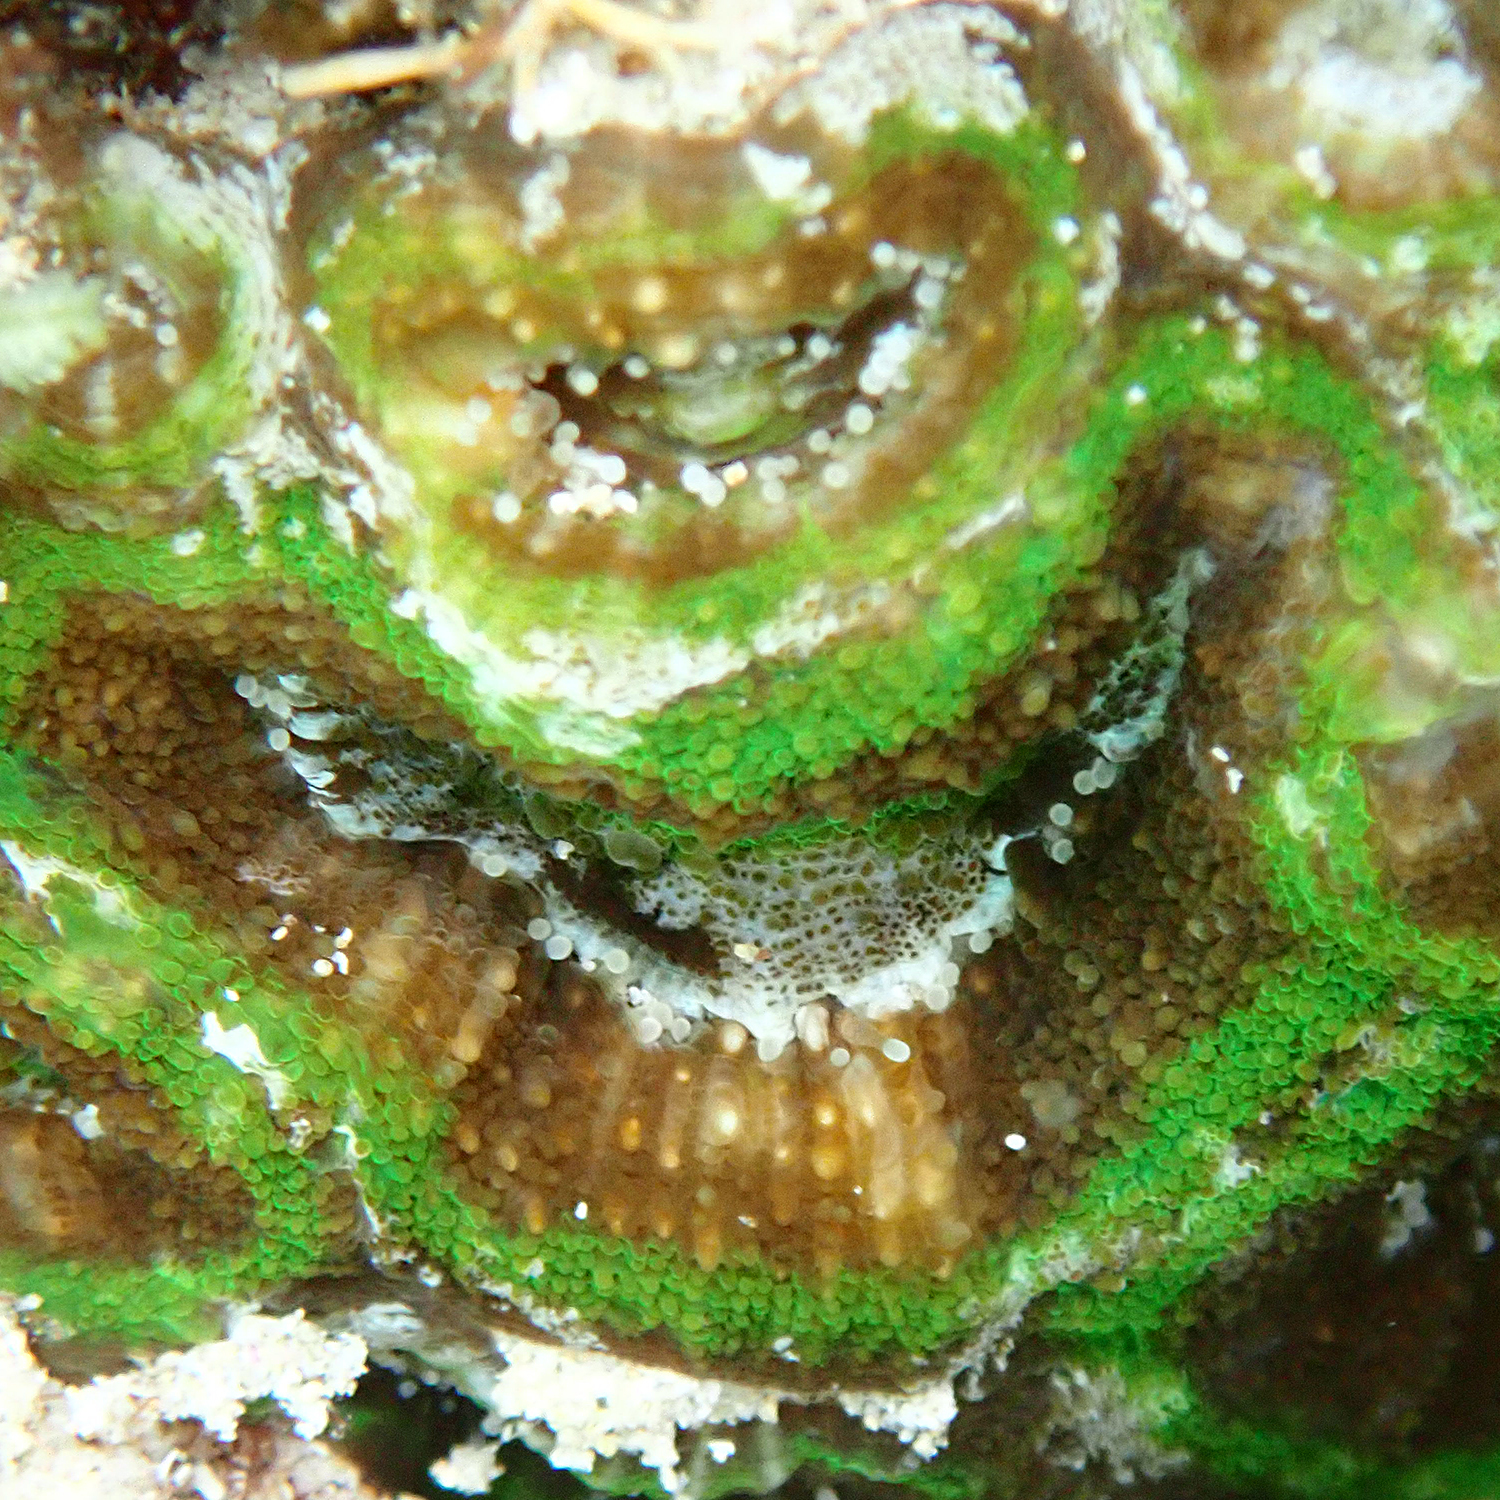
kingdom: Animalia
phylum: Cnidaria
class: Anthozoa
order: Scleractinia
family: Lobophylliidae
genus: Homophyllia
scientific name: Homophyllia bowerbanki
